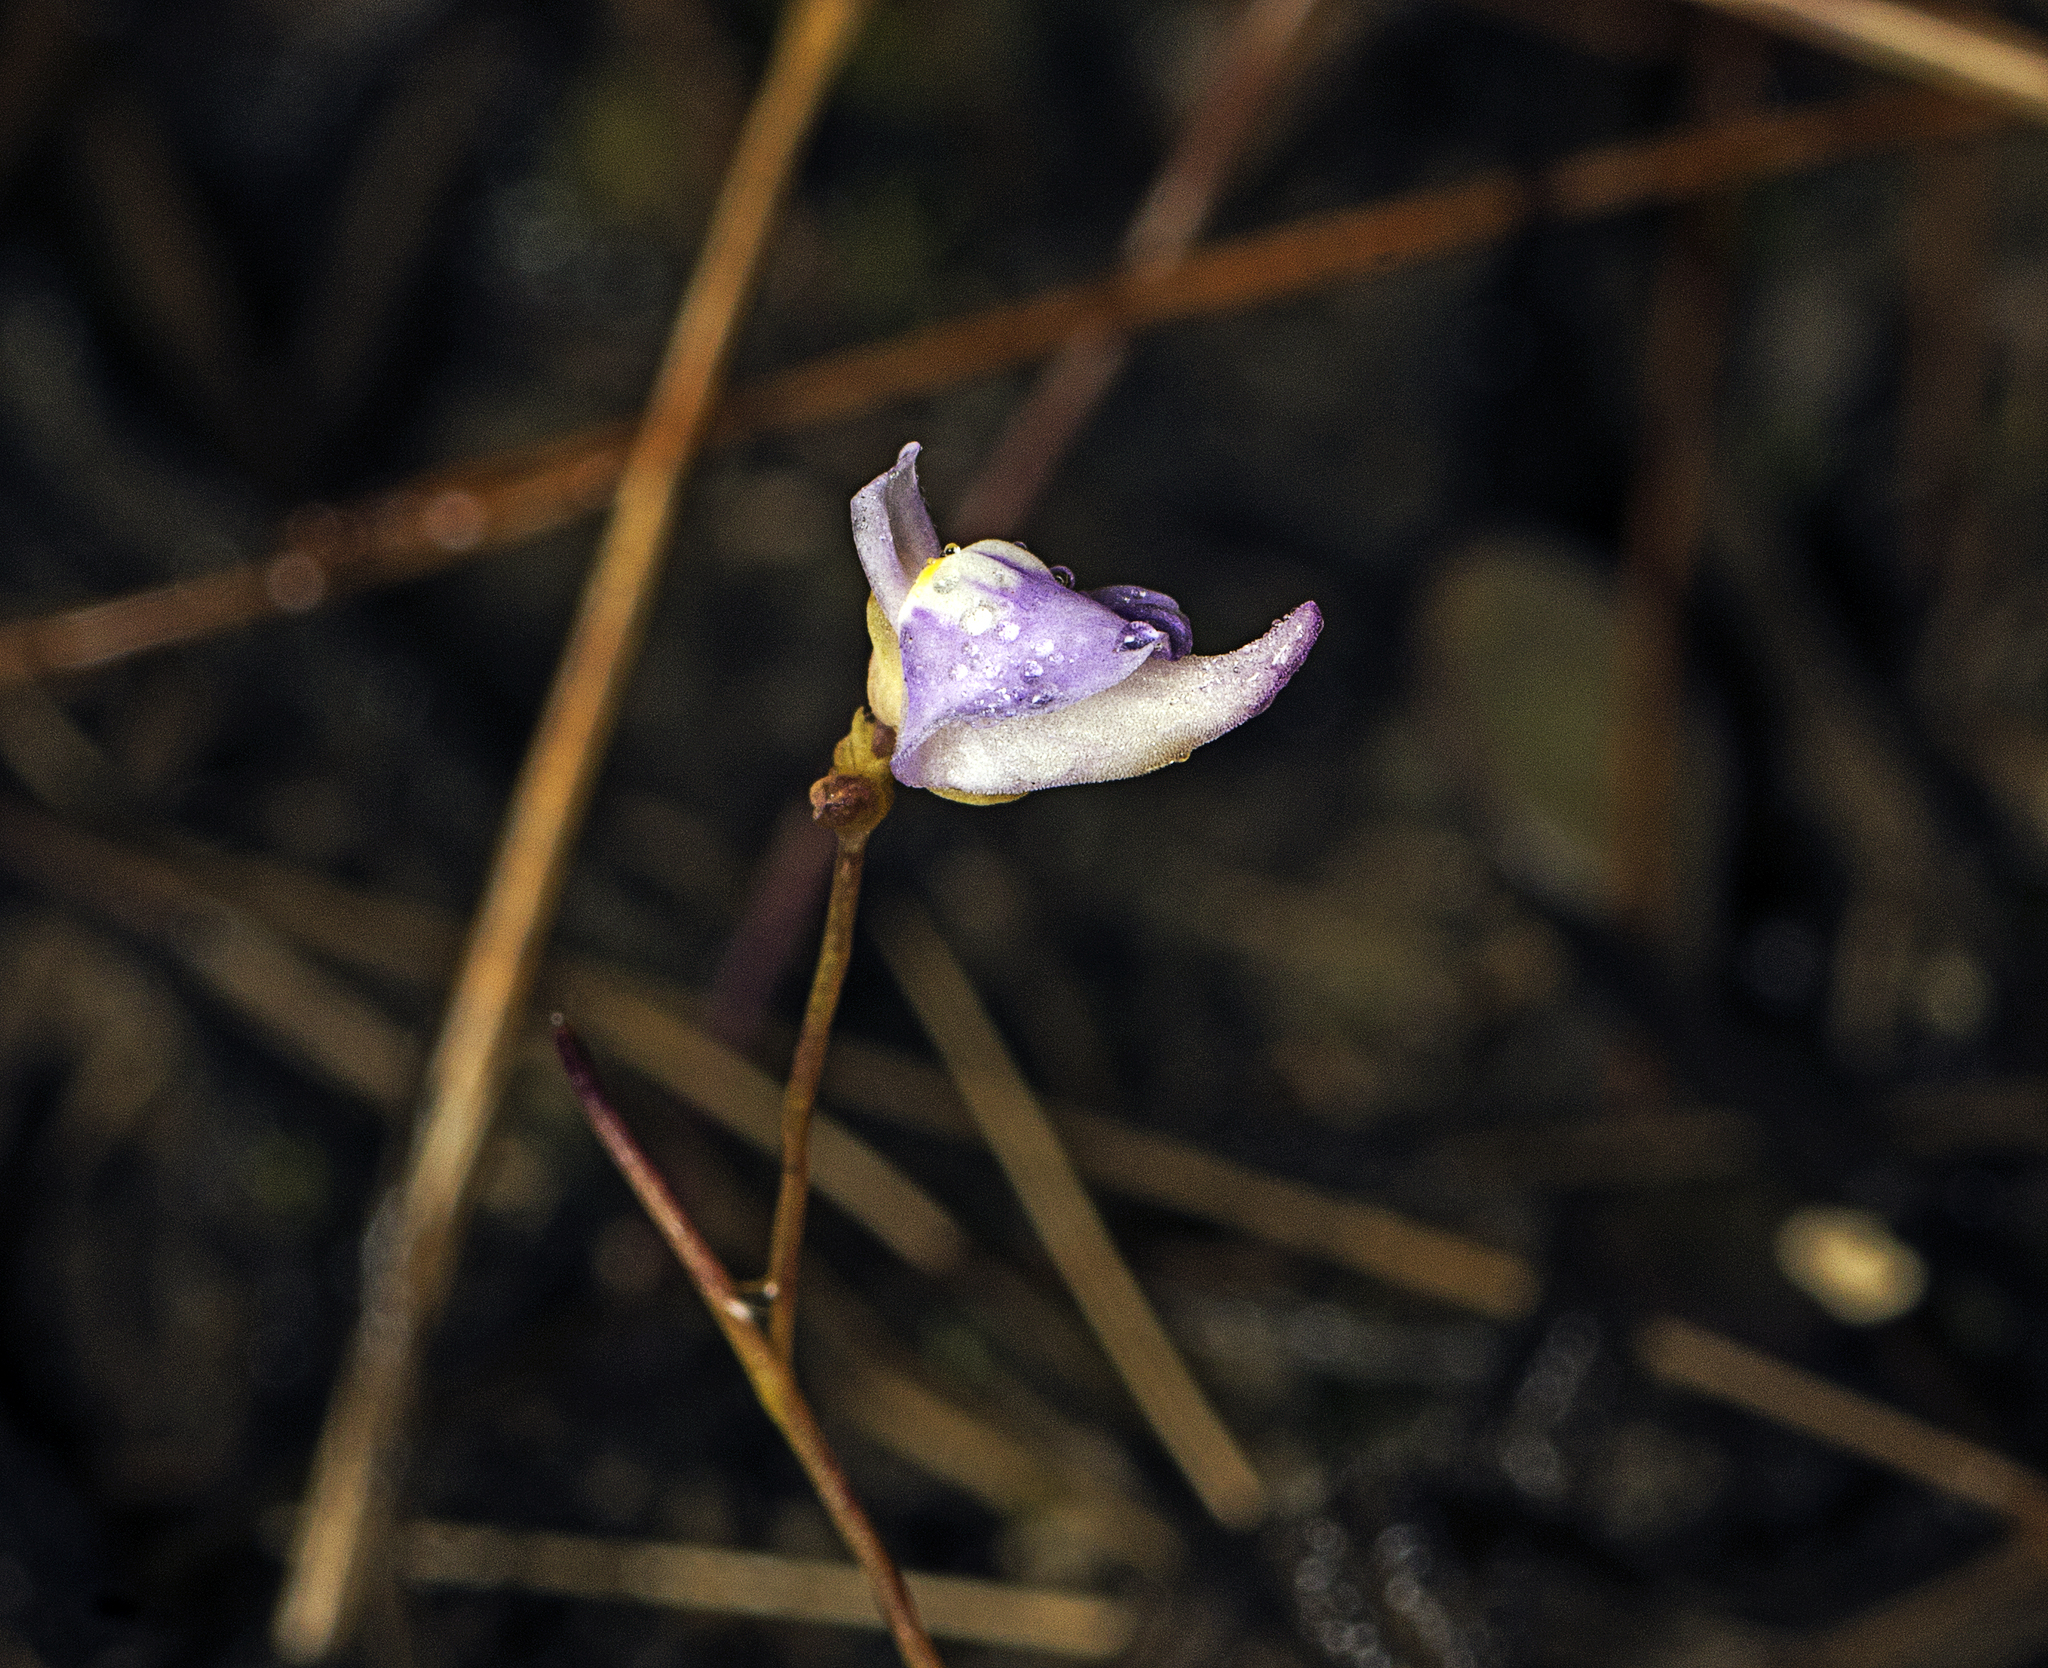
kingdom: Plantae
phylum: Tracheophyta
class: Magnoliopsida
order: Lamiales
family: Lentibulariaceae
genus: Utricularia
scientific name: Utricularia caerulea
